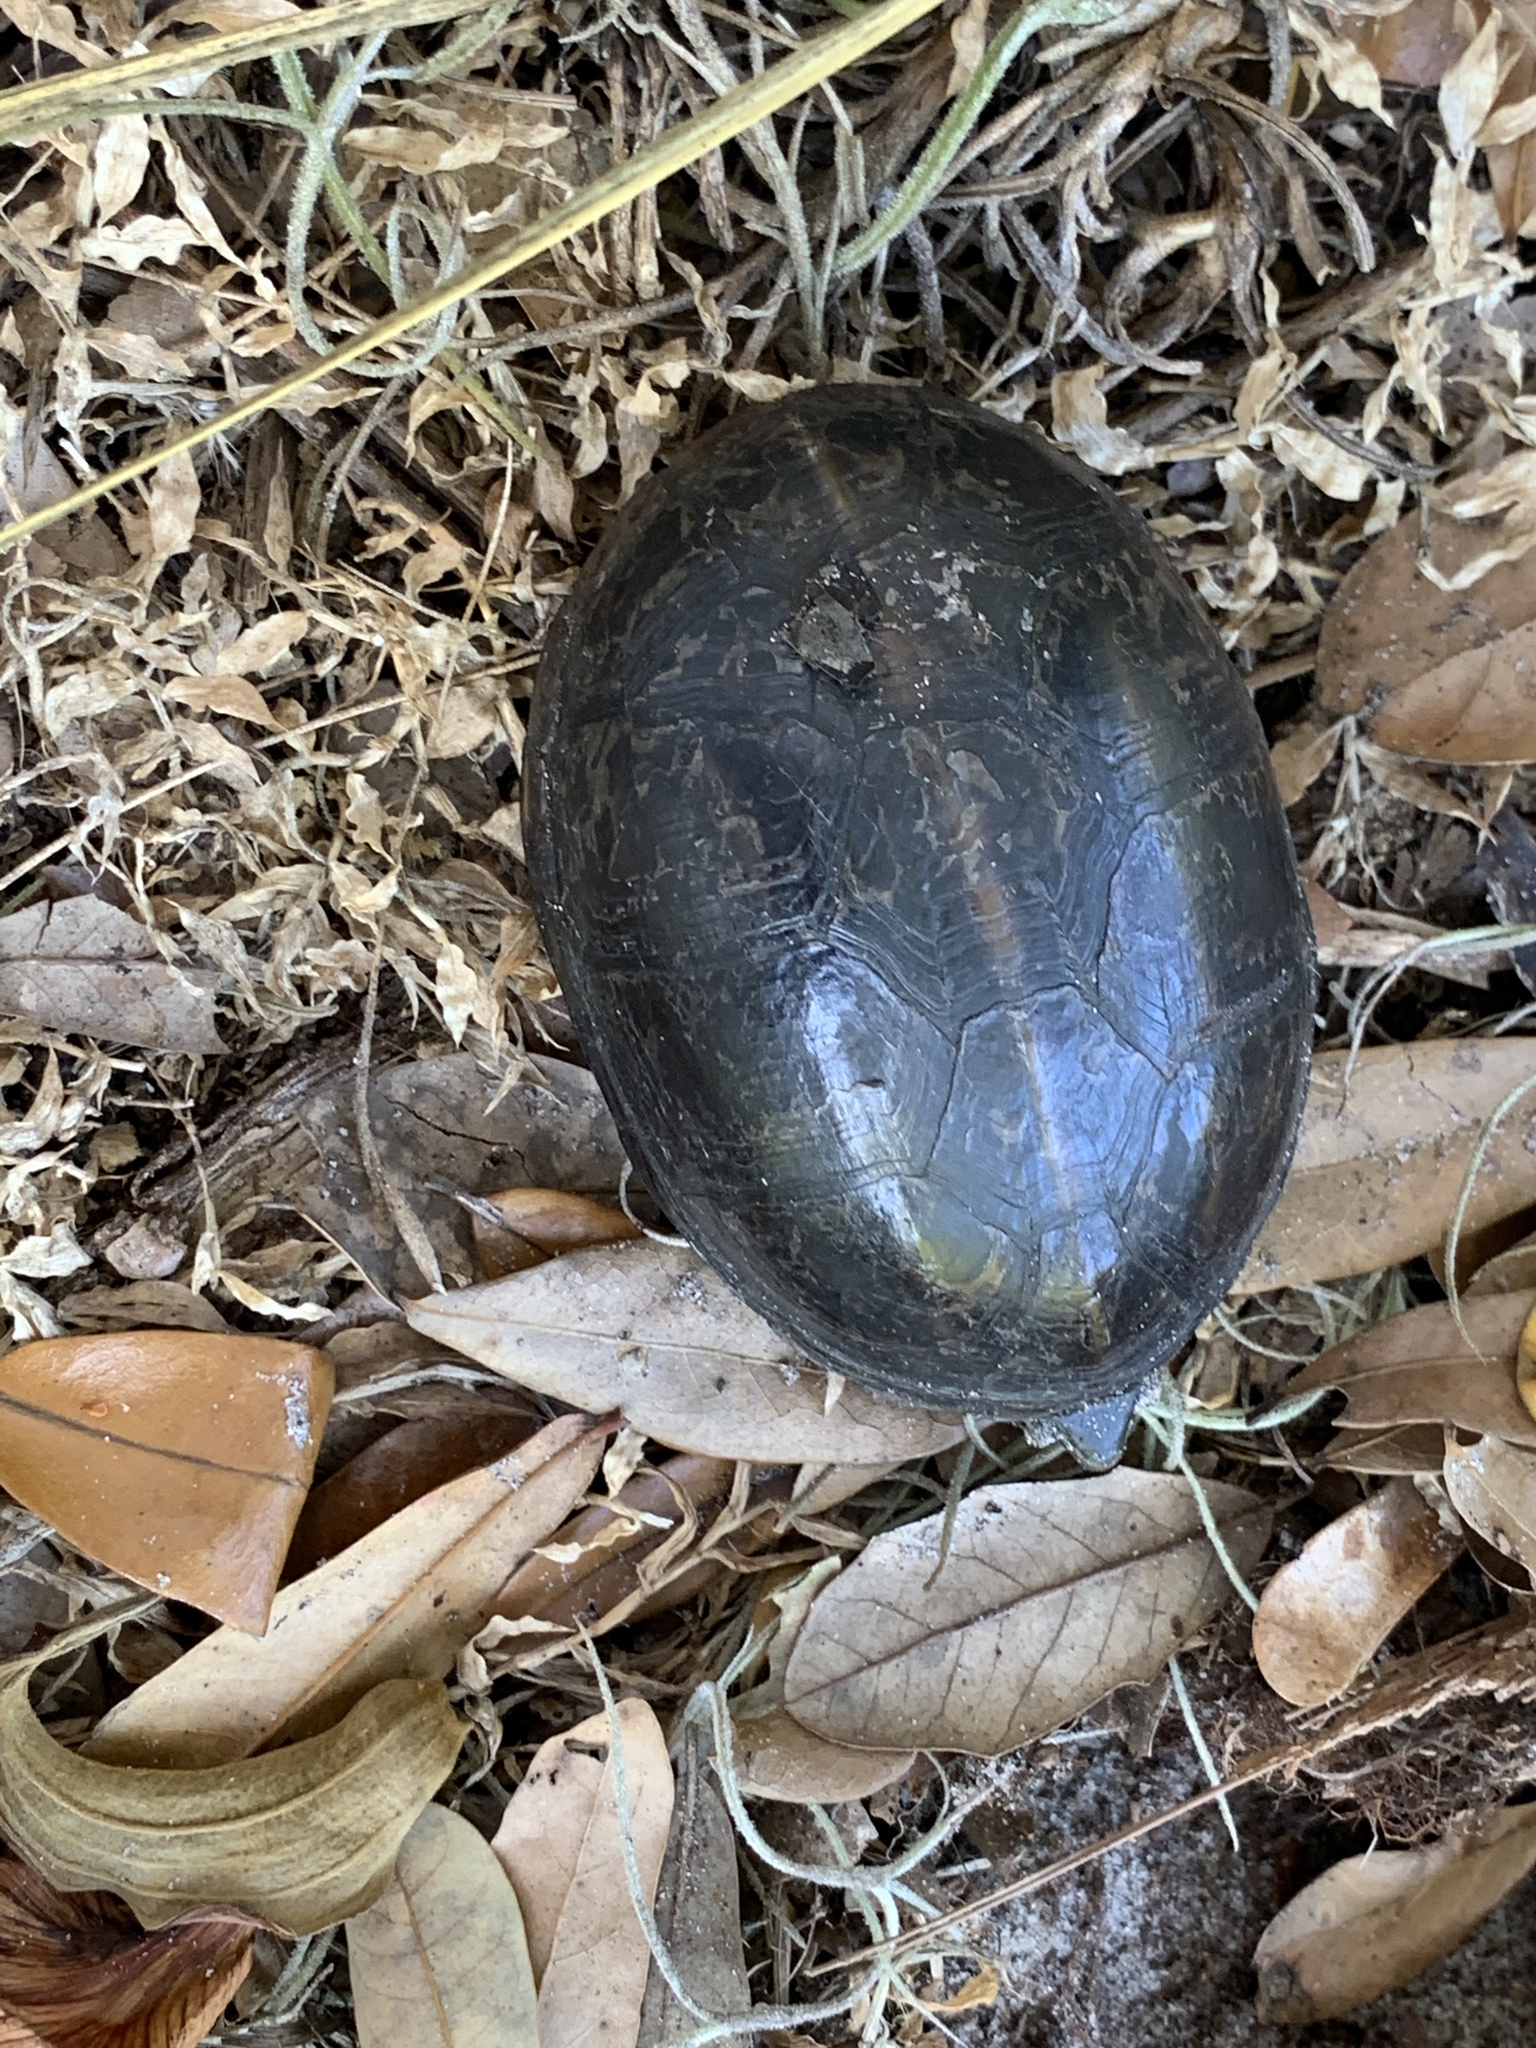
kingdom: Animalia
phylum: Chordata
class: Testudines
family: Kinosternidae
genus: Kinosternon
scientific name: Kinosternon baurii
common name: Striped mud turtle
